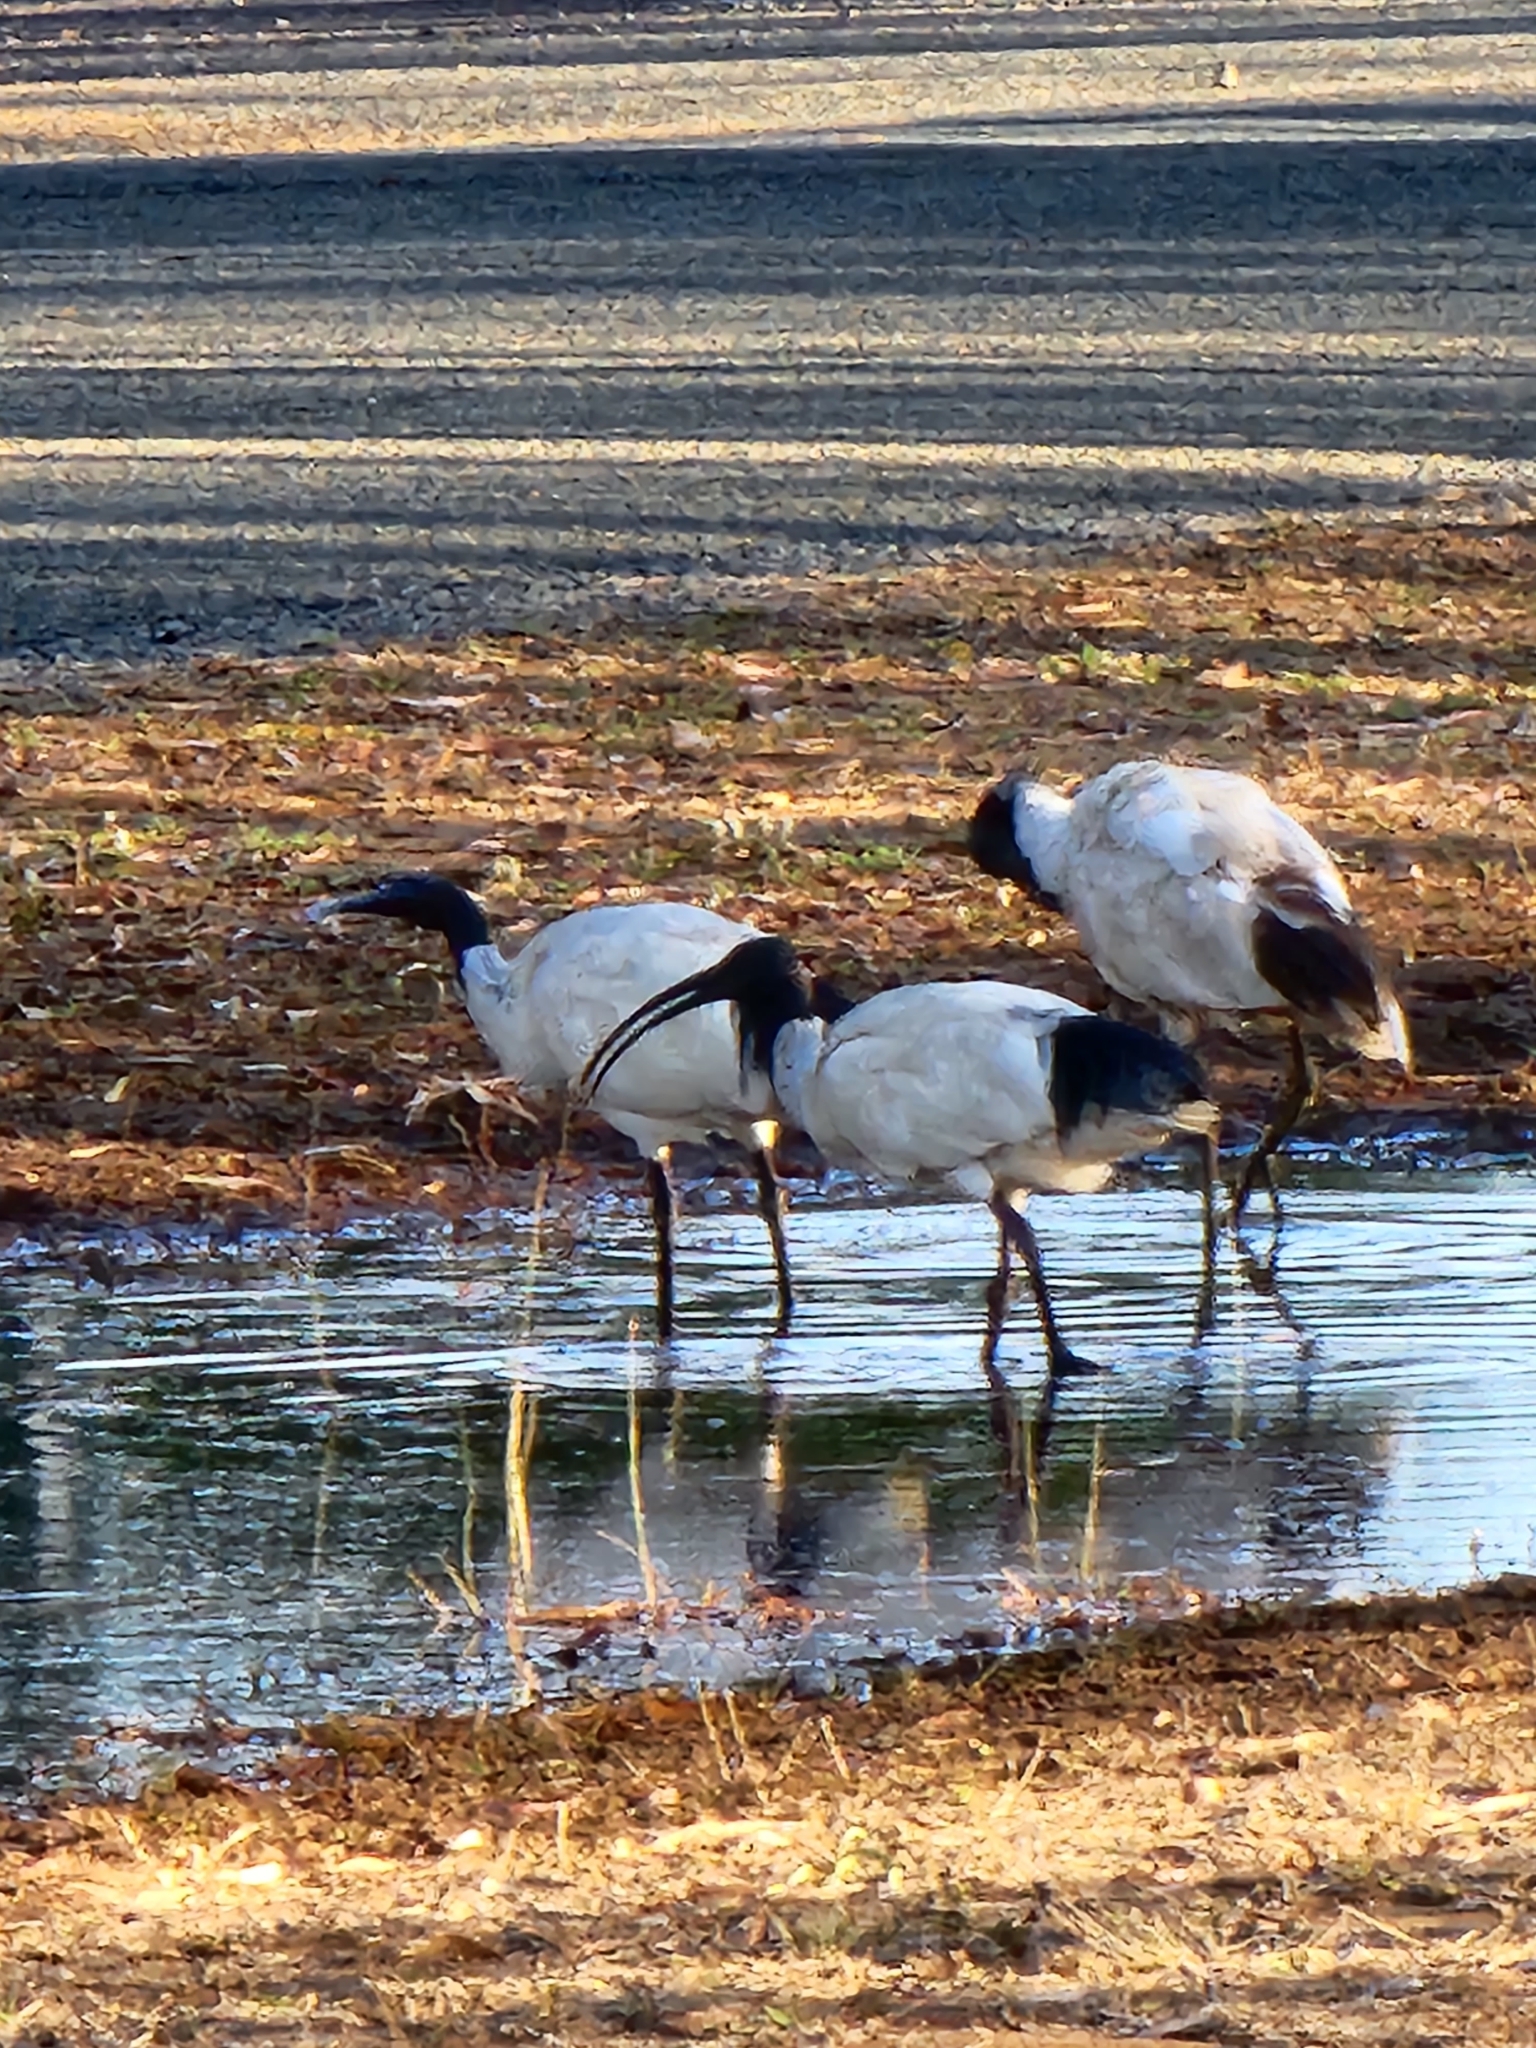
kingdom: Animalia
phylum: Chordata
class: Aves
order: Pelecaniformes
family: Threskiornithidae
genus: Threskiornis
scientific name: Threskiornis molucca
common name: Australian white ibis
